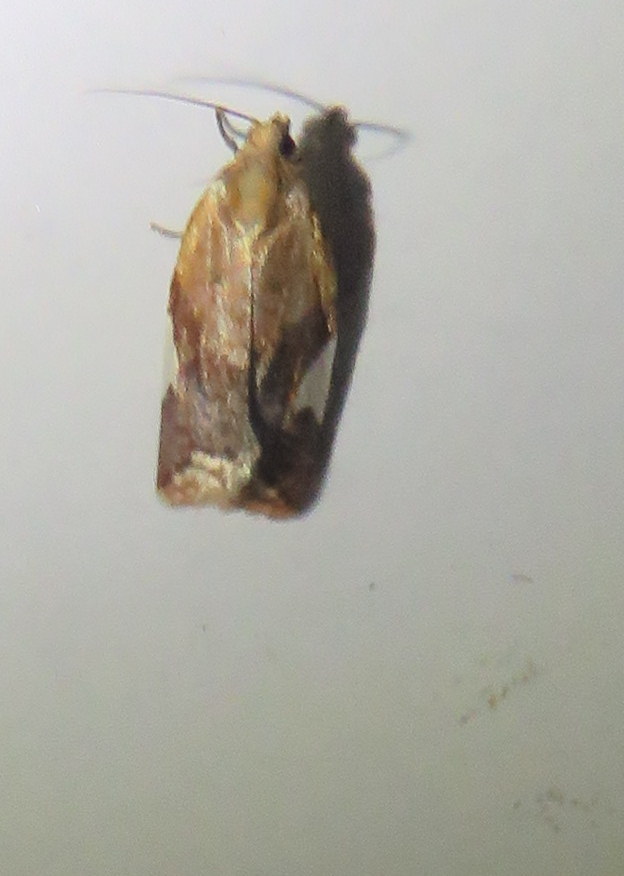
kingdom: Animalia
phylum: Arthropoda
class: Insecta
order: Lepidoptera
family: Tortricidae
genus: Clepsis
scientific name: Clepsis persicana
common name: White triangle tortrix
